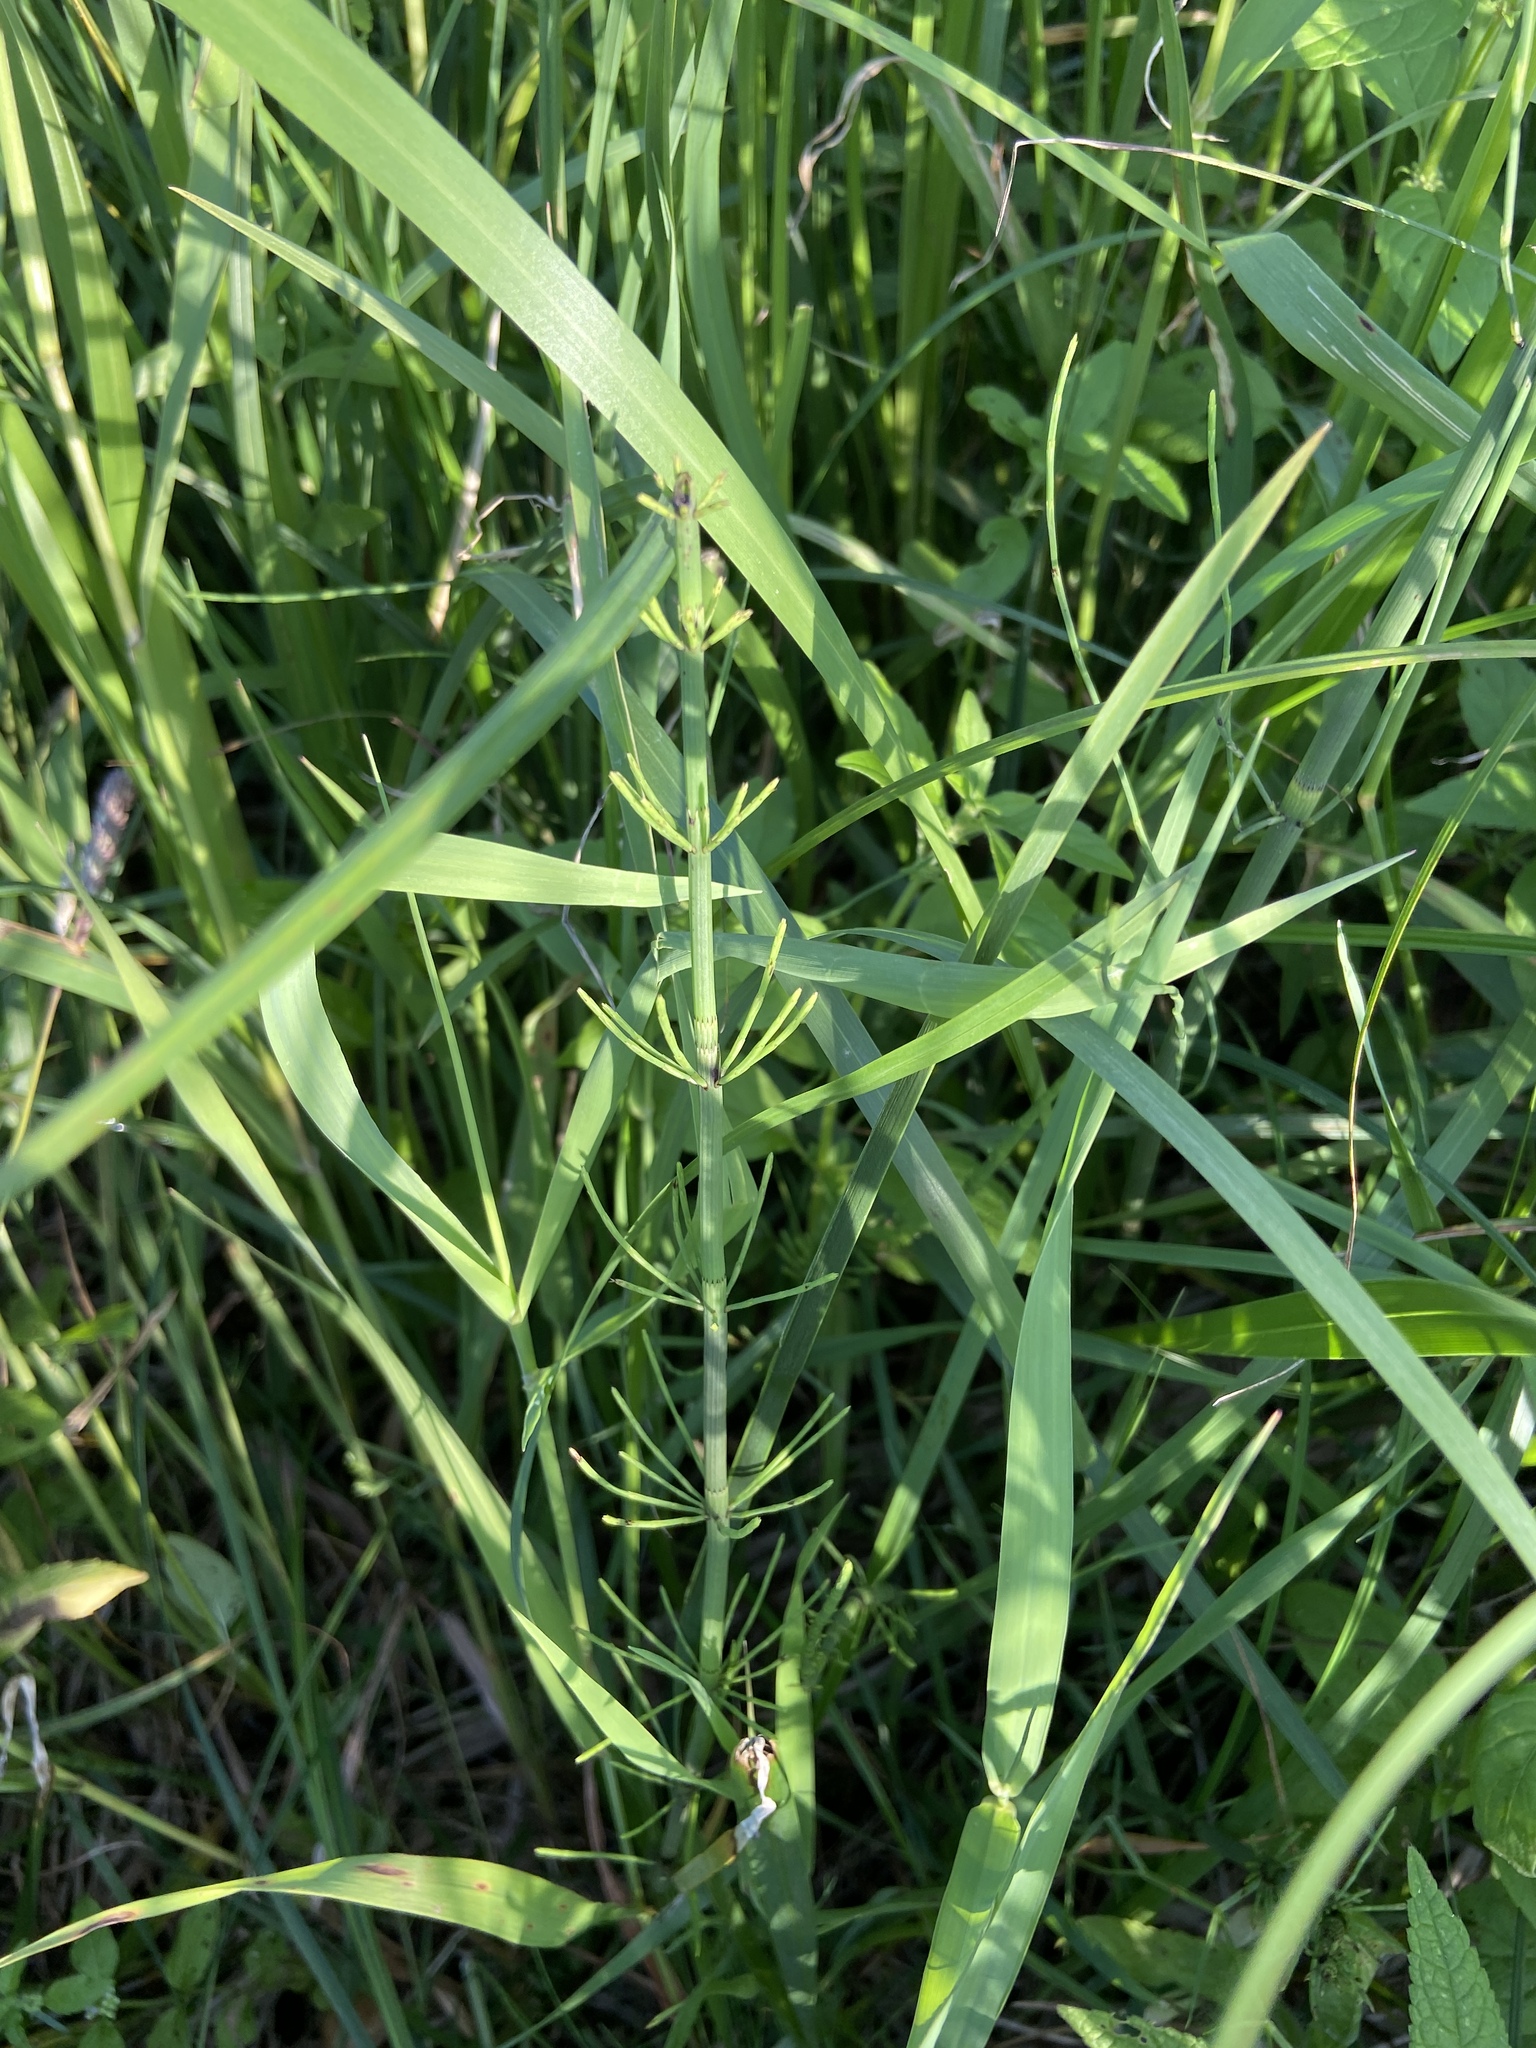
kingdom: Plantae
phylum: Tracheophyta
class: Polypodiopsida
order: Equisetales
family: Equisetaceae
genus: Equisetum
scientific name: Equisetum fluviatile
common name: Water horsetail
